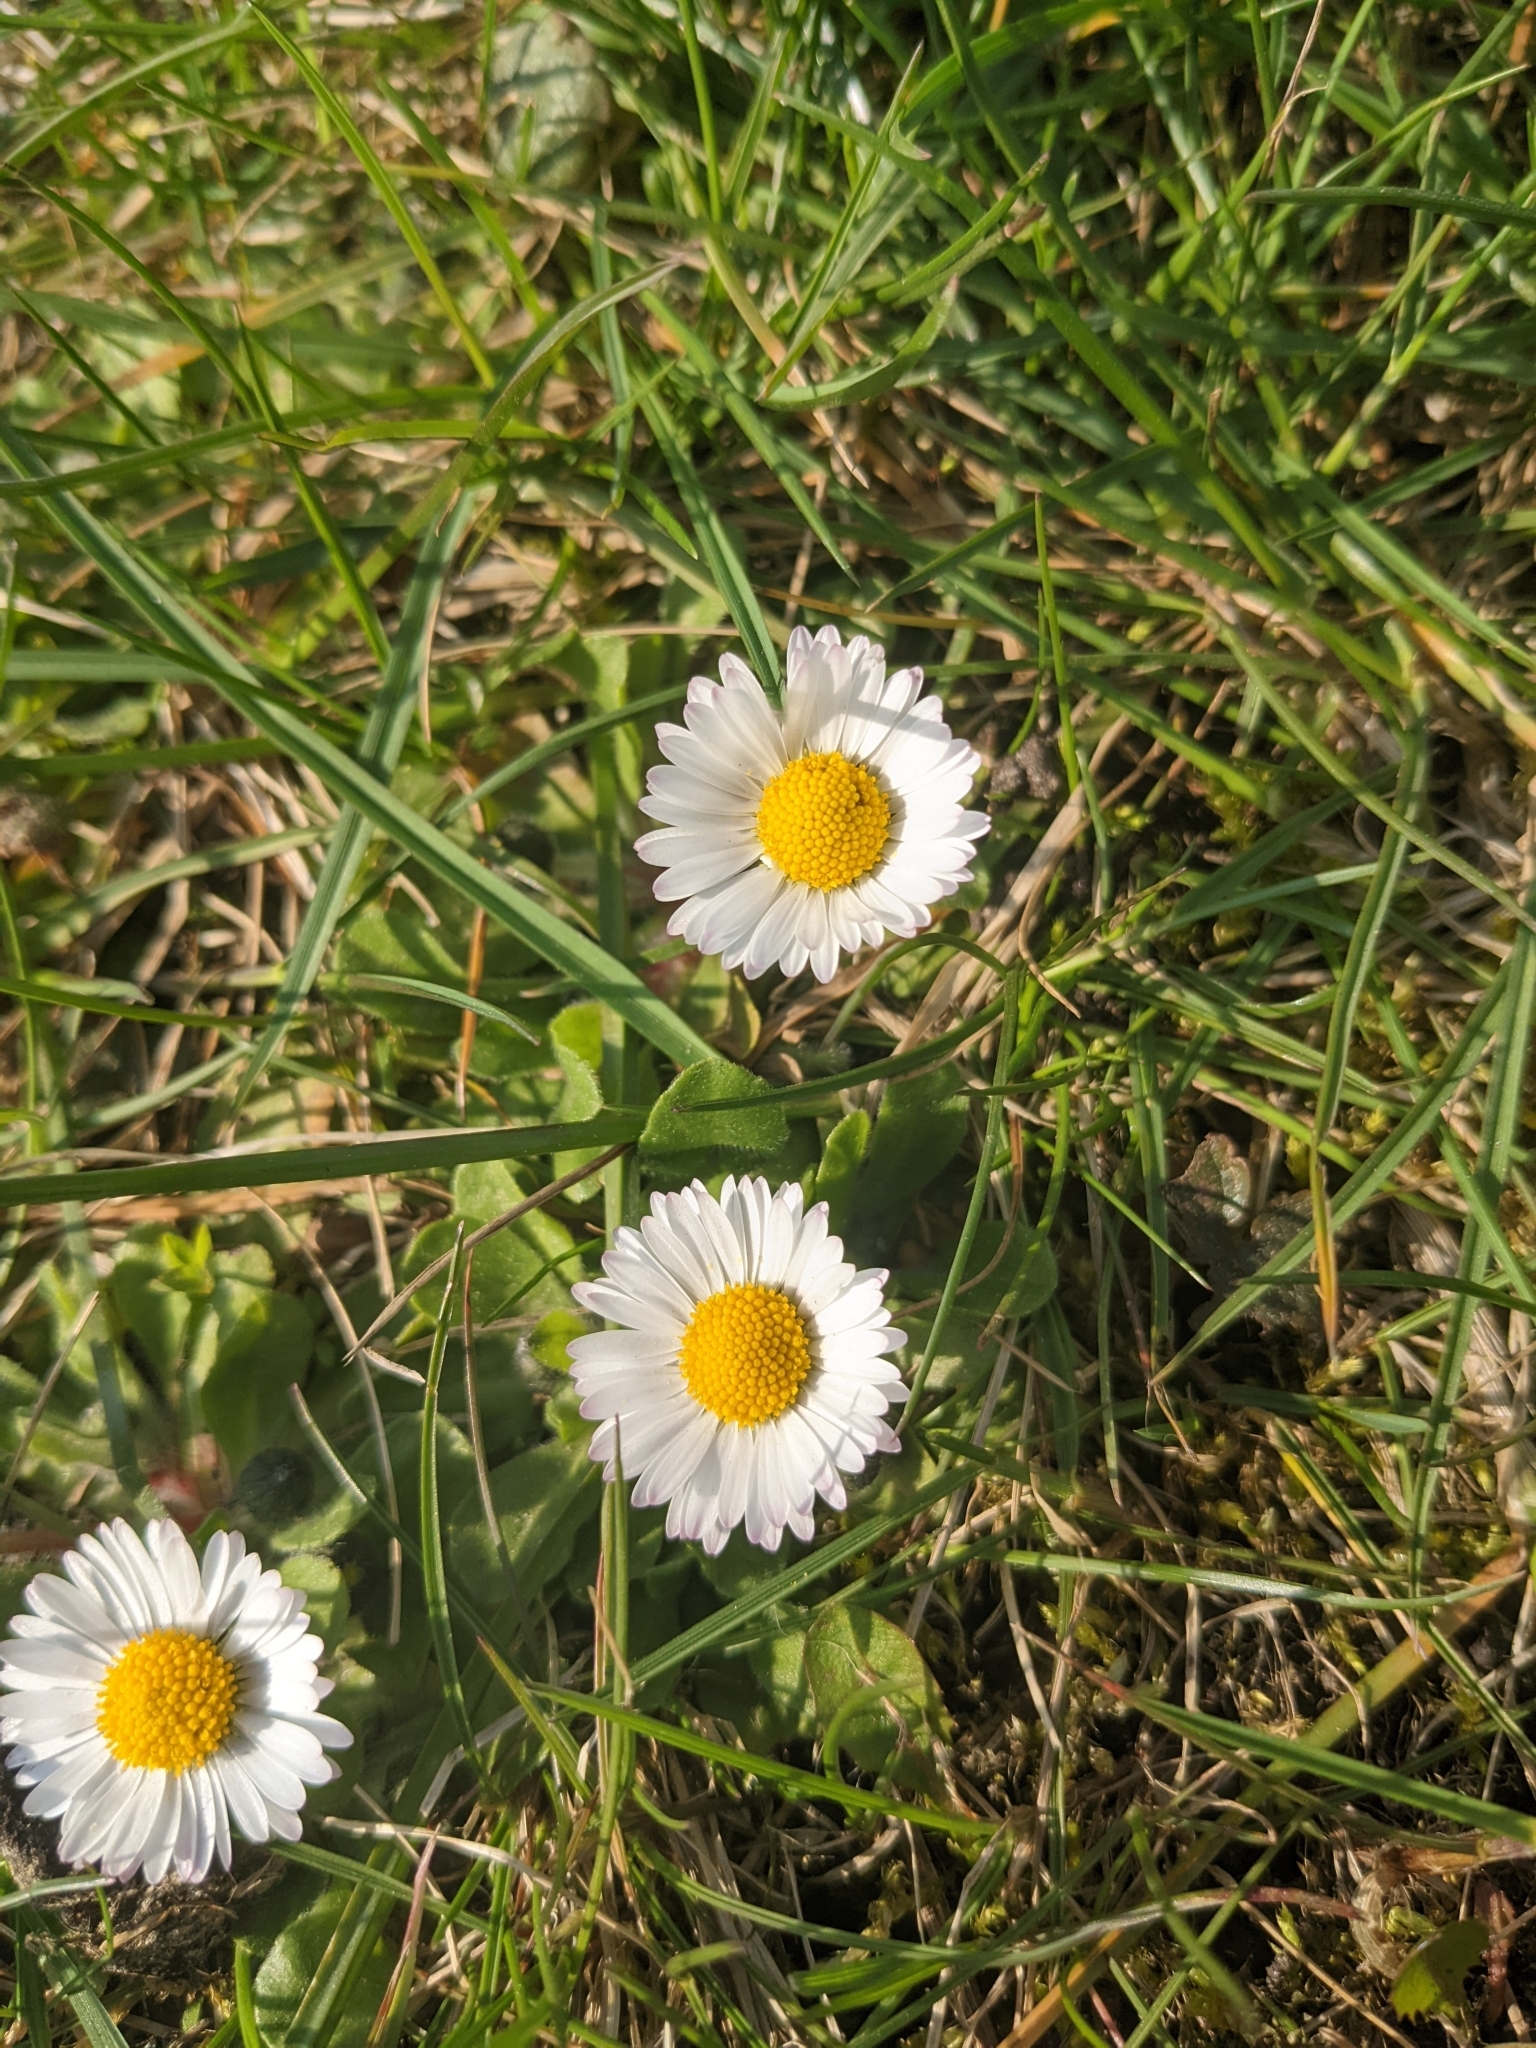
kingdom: Plantae
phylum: Tracheophyta
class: Magnoliopsida
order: Asterales
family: Asteraceae
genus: Bellis
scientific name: Bellis perennis
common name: Lawndaisy
